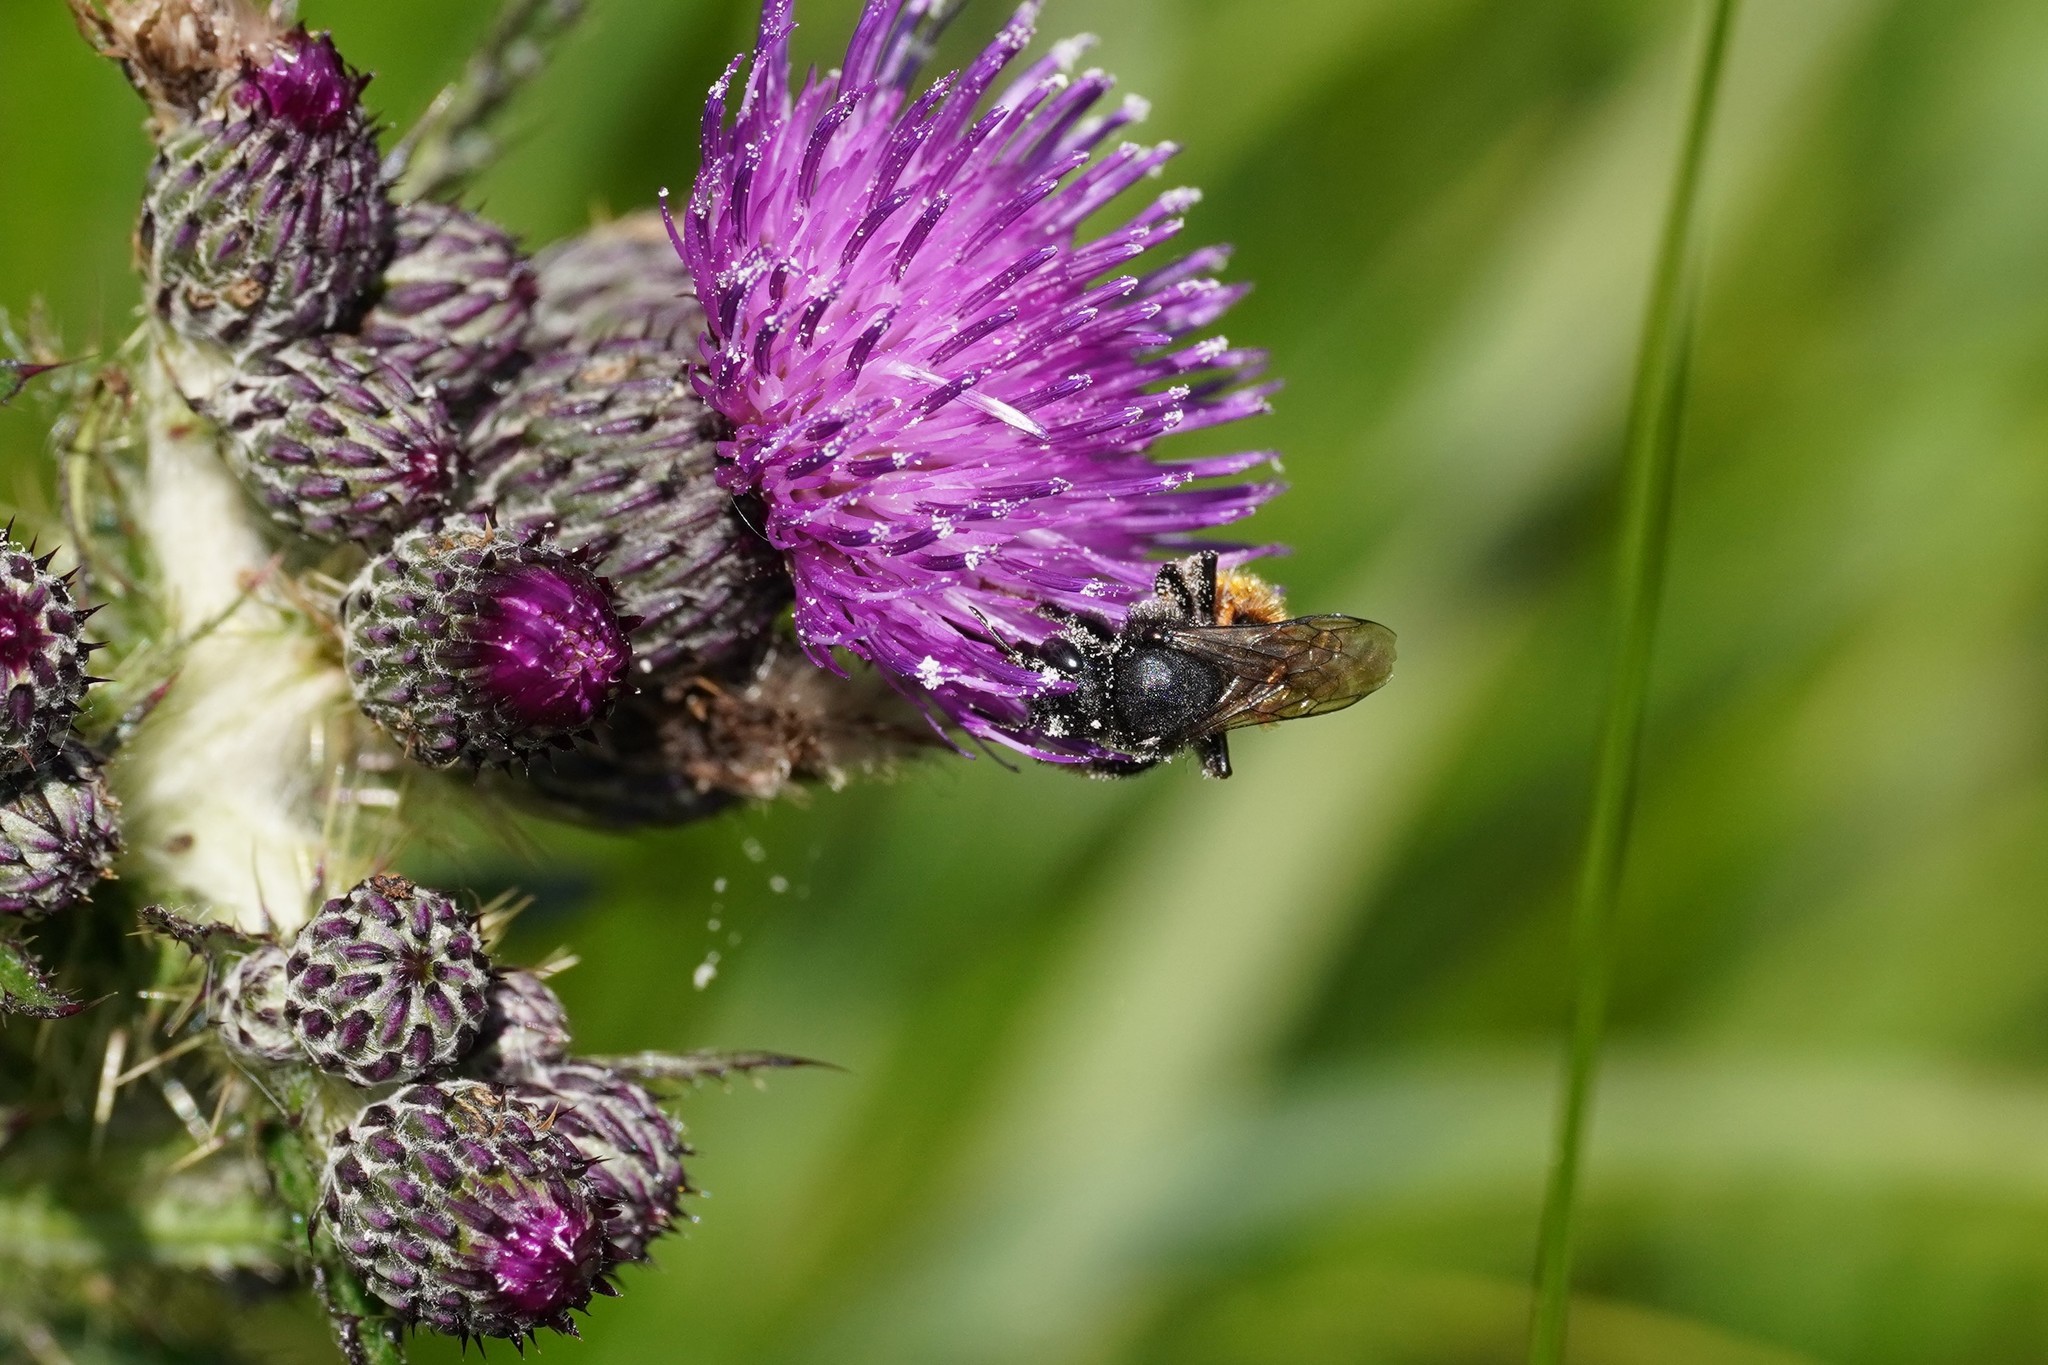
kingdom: Animalia
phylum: Arthropoda
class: Insecta
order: Hymenoptera
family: Megachilidae
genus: Osmia
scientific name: Osmia bicolor
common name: Red-tailed mason bee
